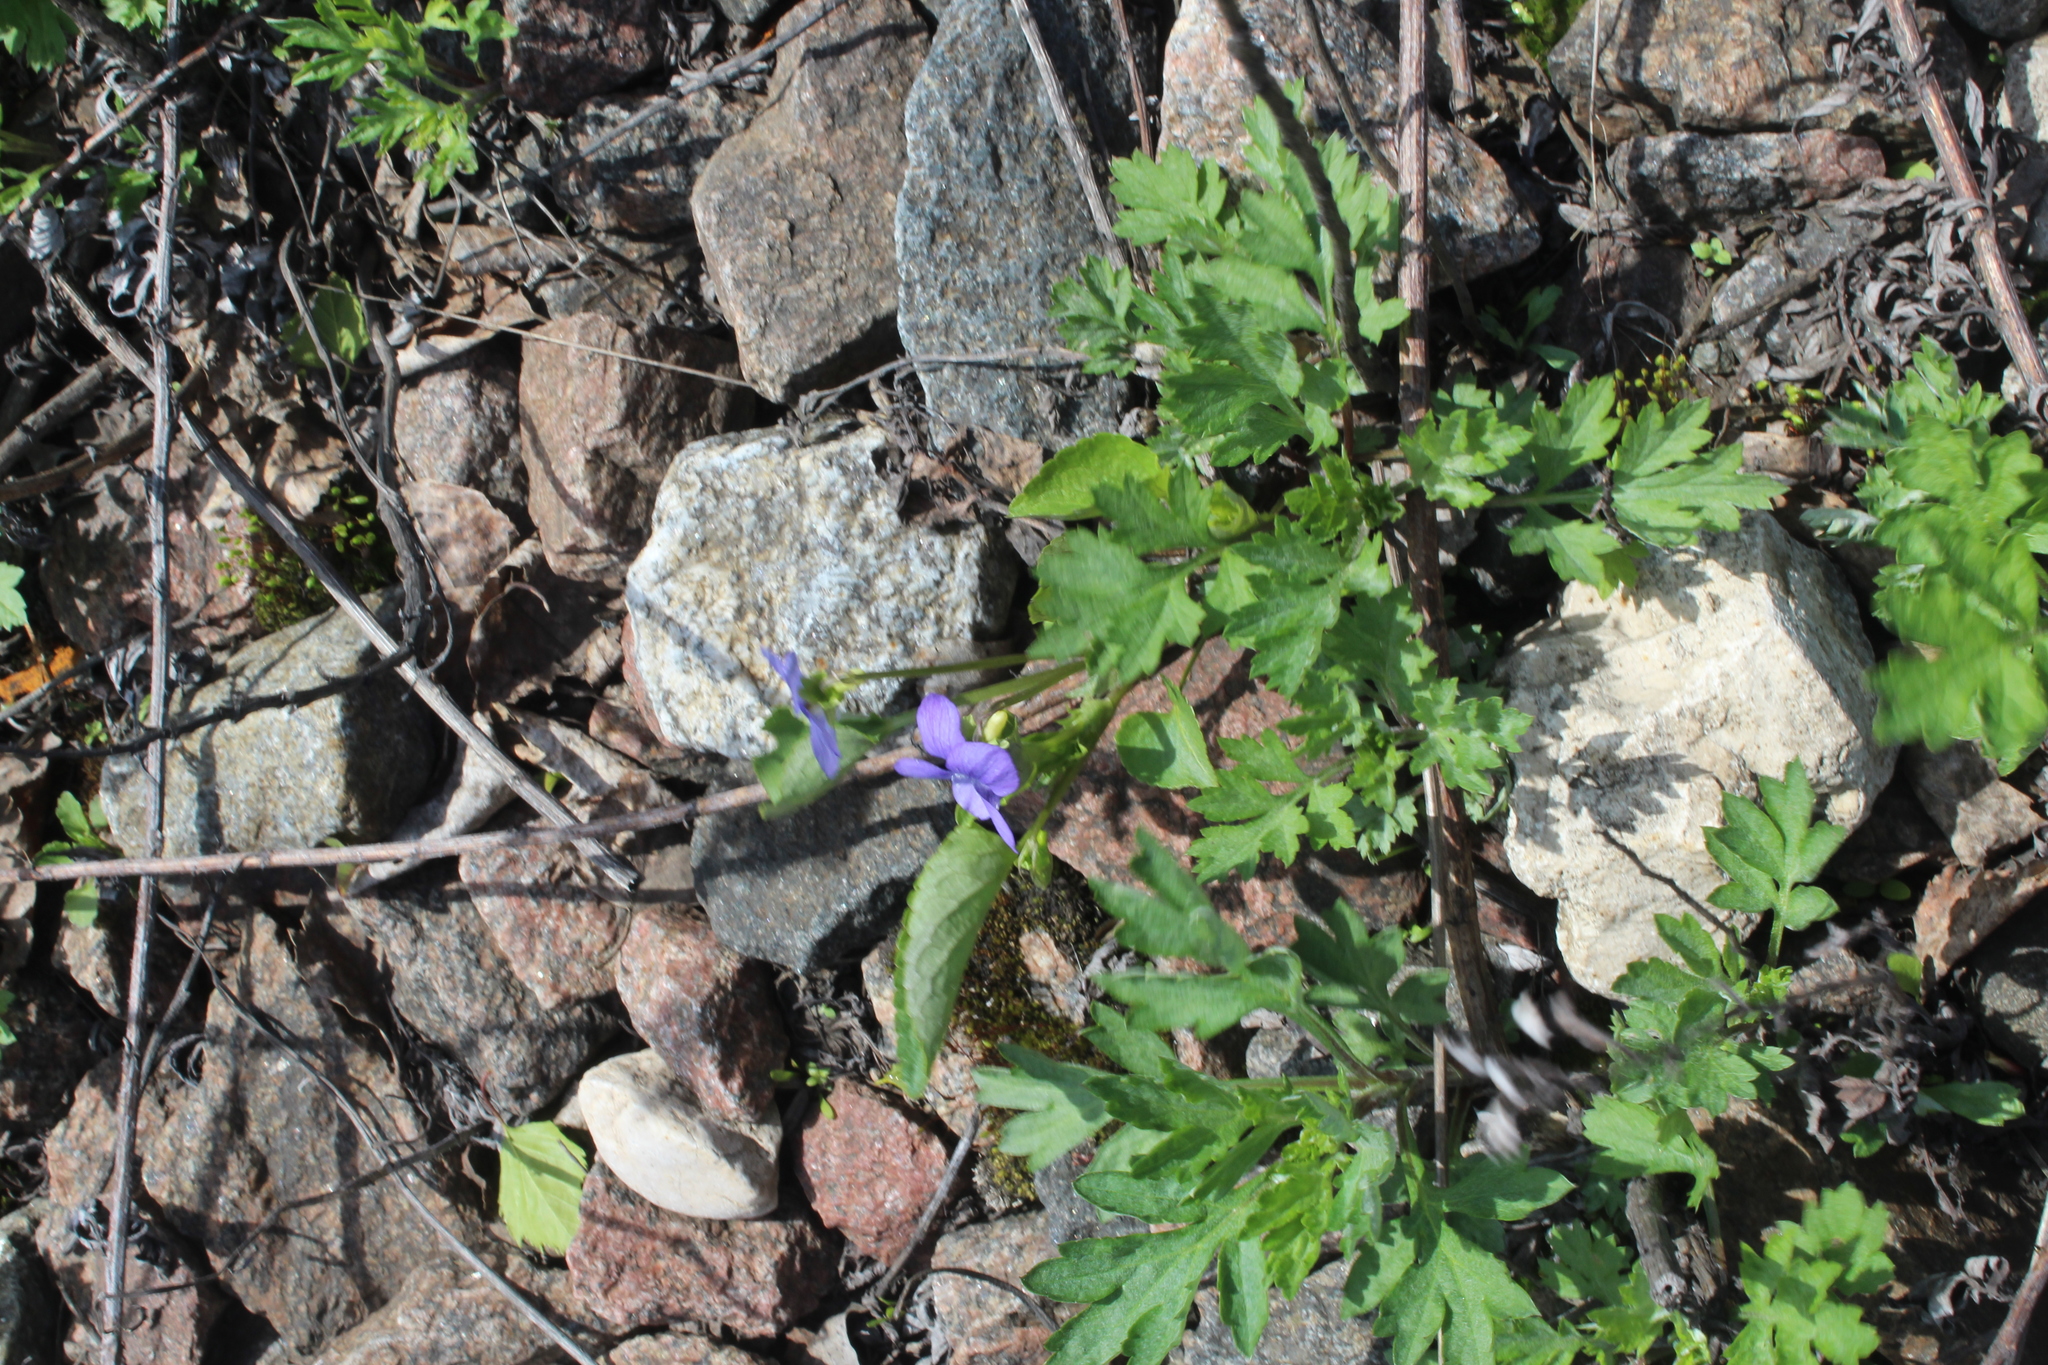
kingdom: Plantae
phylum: Tracheophyta
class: Magnoliopsida
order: Malpighiales
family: Violaceae
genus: Viola
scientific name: Viola canina
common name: Heath dog-violet
